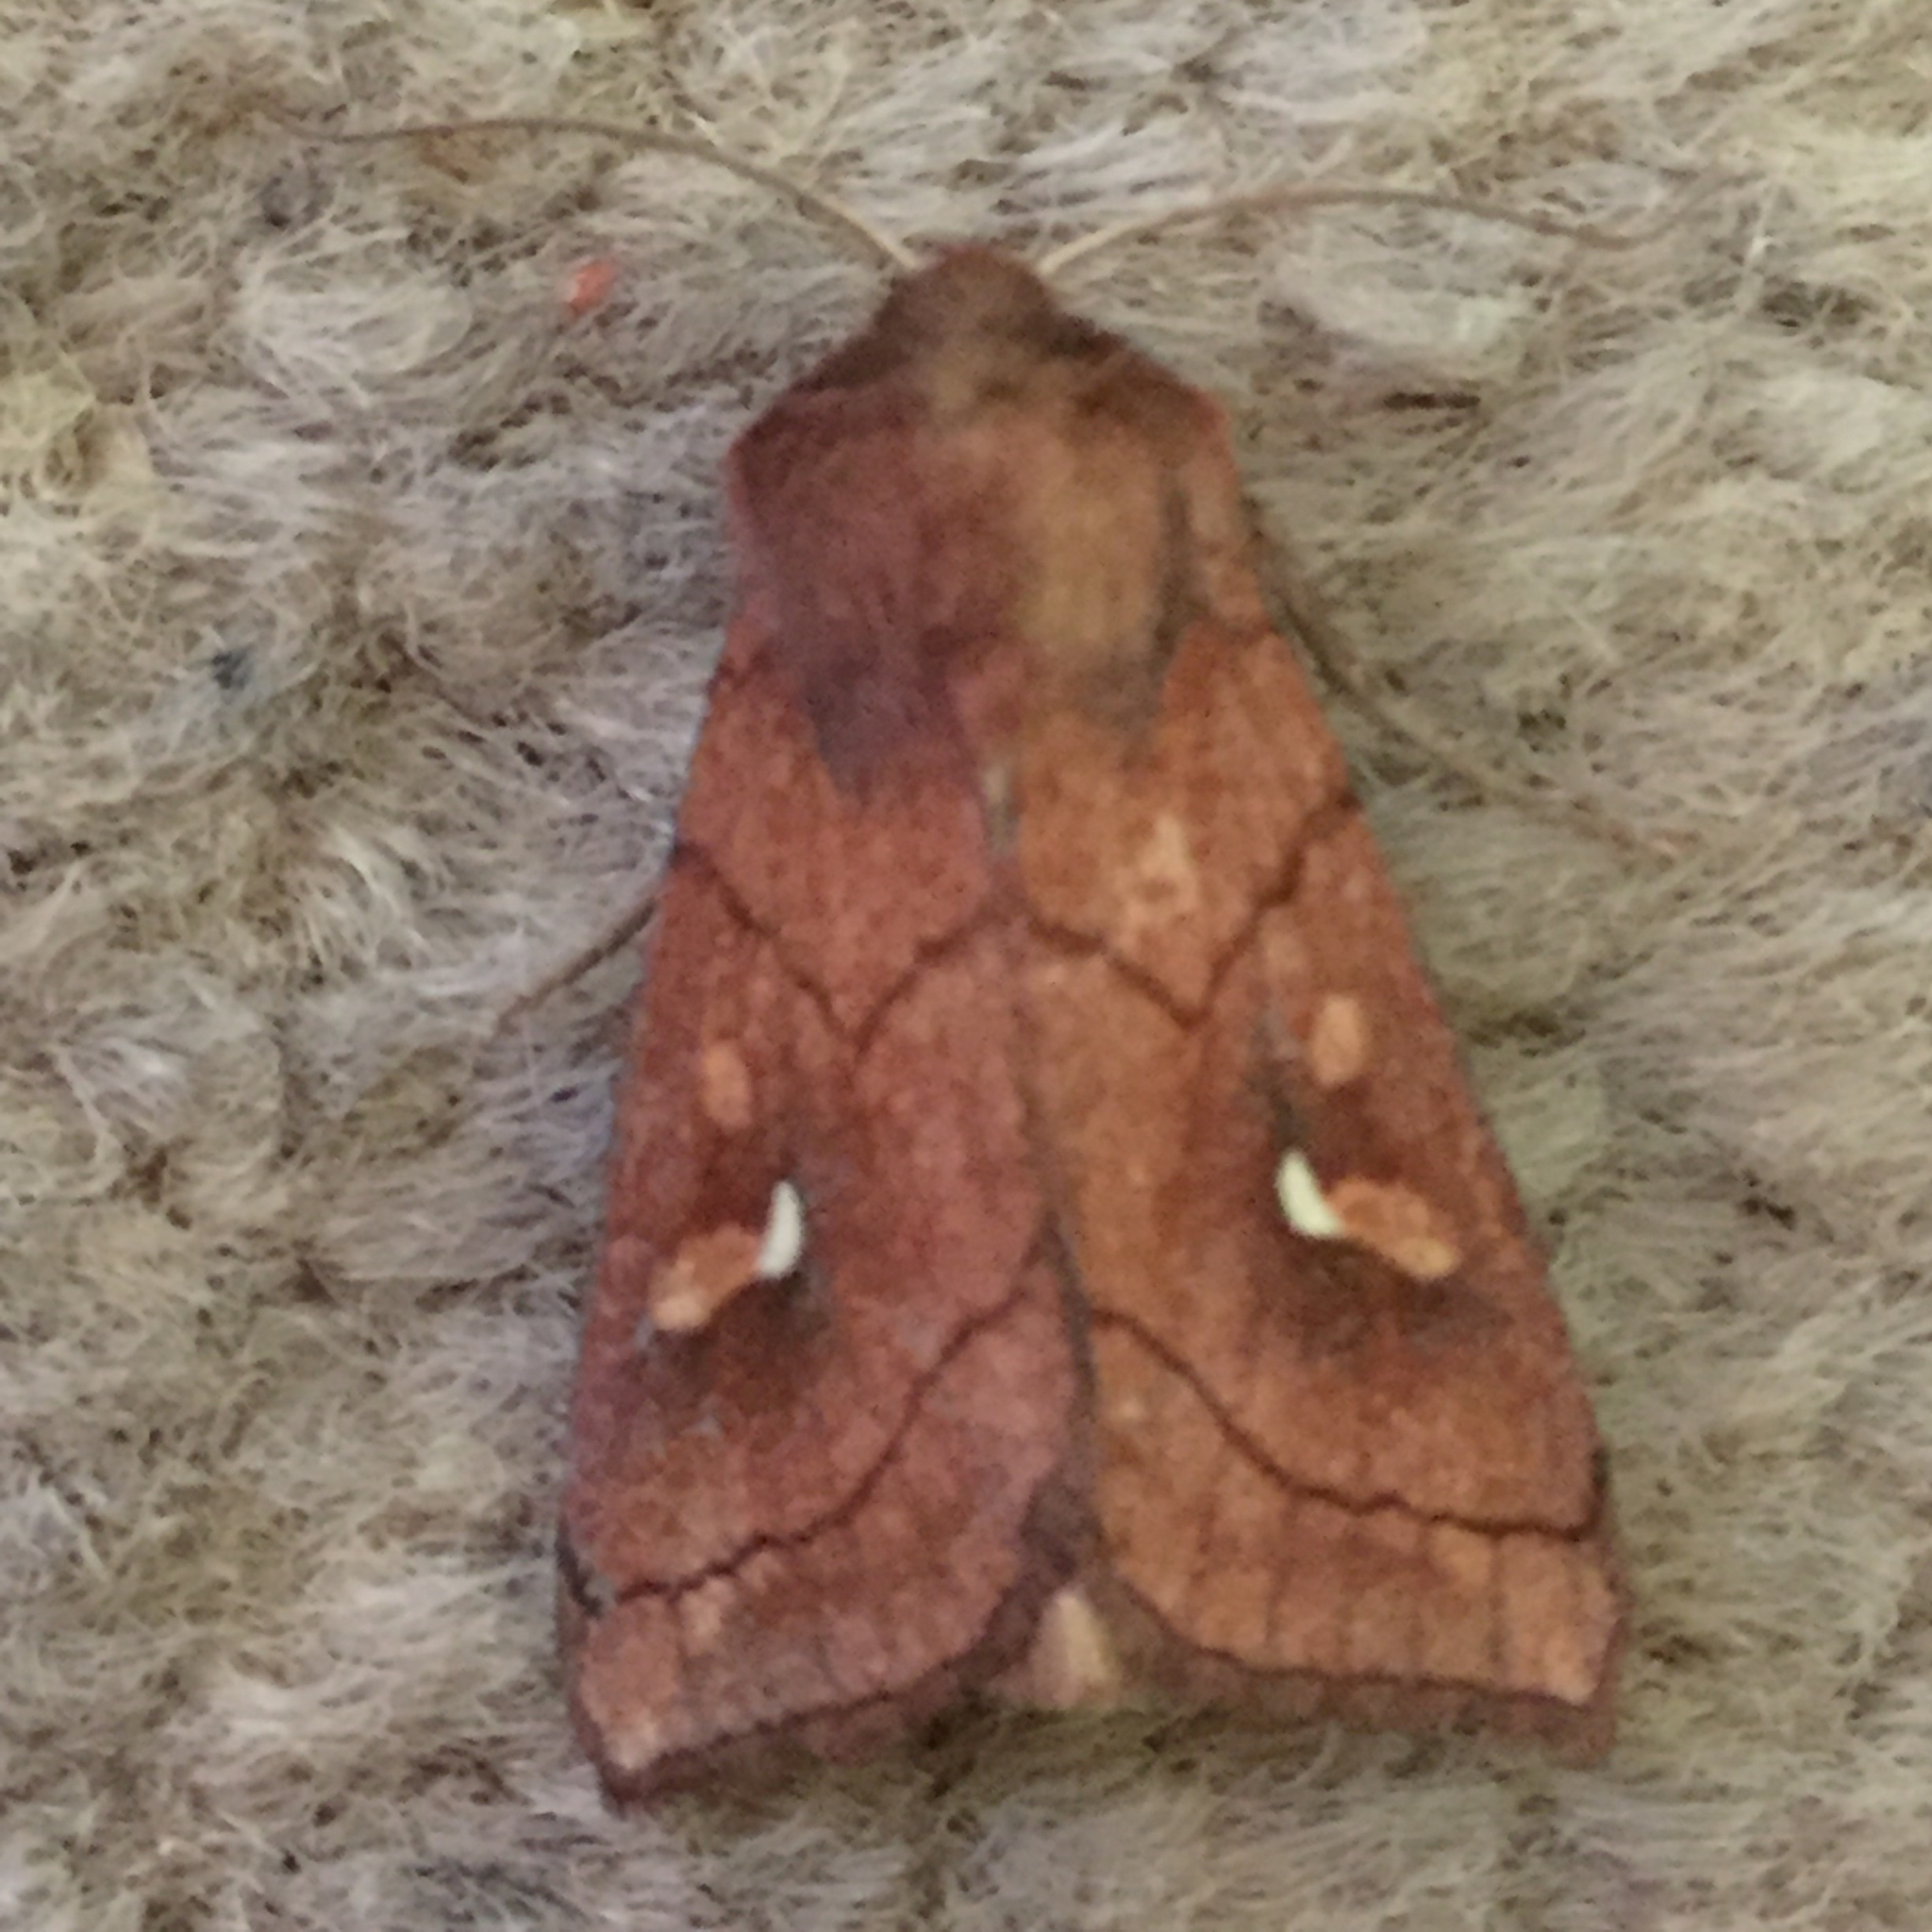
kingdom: Animalia
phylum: Arthropoda
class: Insecta
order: Lepidoptera
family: Noctuidae
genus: Mythimna
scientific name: Mythimna conigera
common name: Brown-line bright-eye
